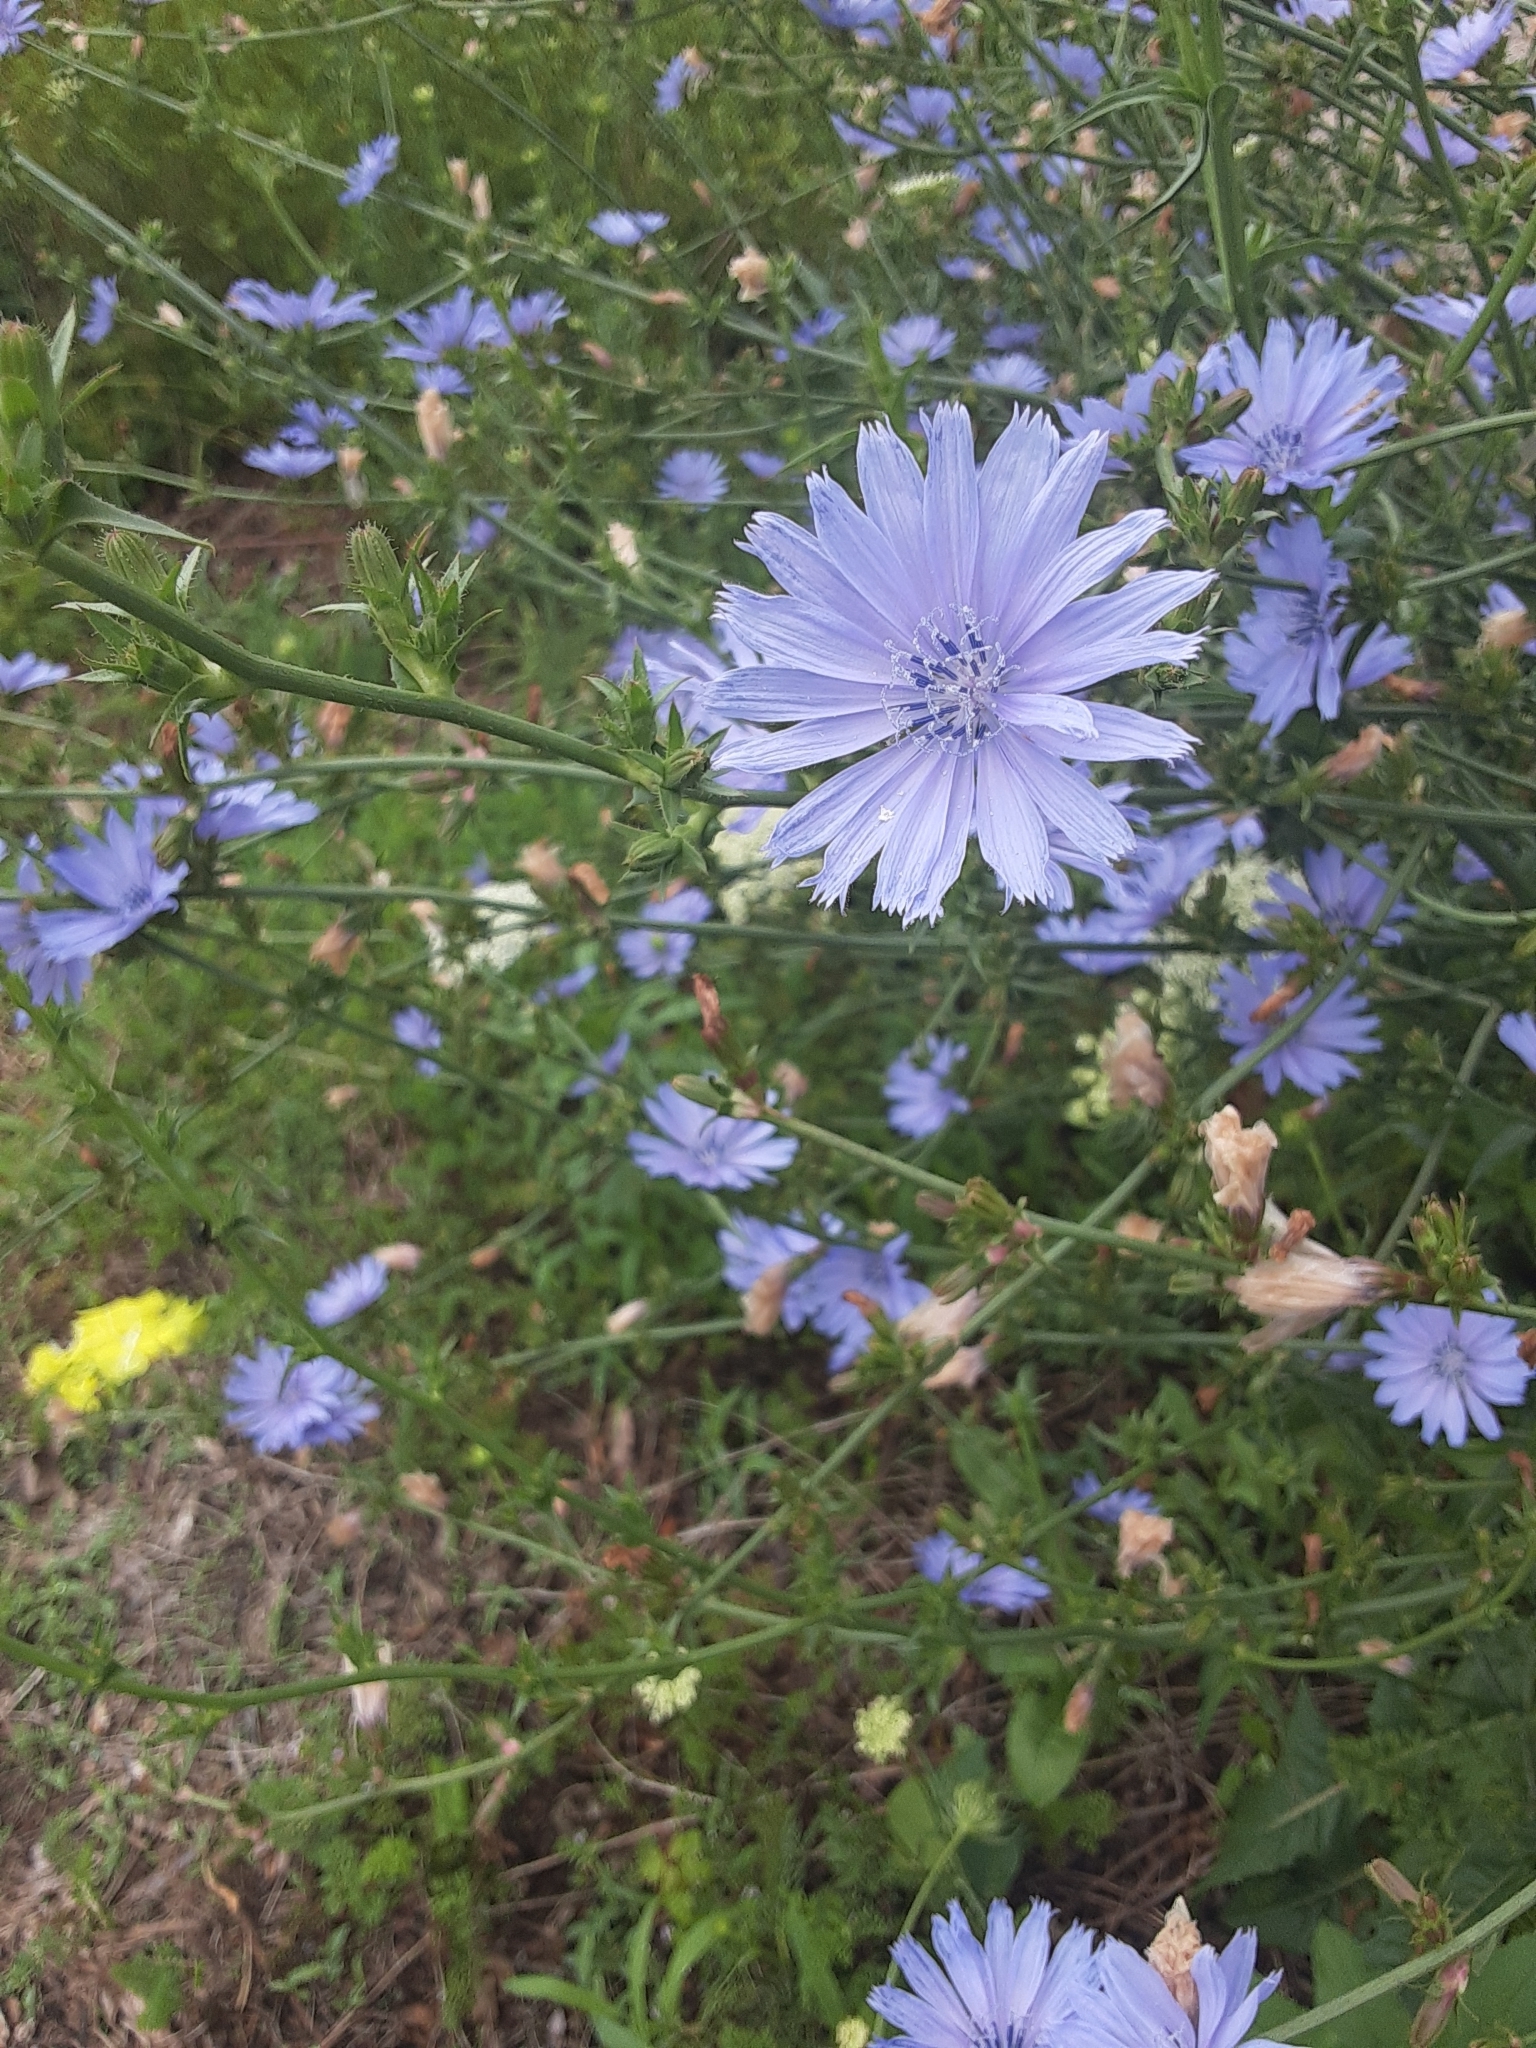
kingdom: Plantae
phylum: Tracheophyta
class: Magnoliopsida
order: Asterales
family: Asteraceae
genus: Cichorium
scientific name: Cichorium intybus
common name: Chicory
